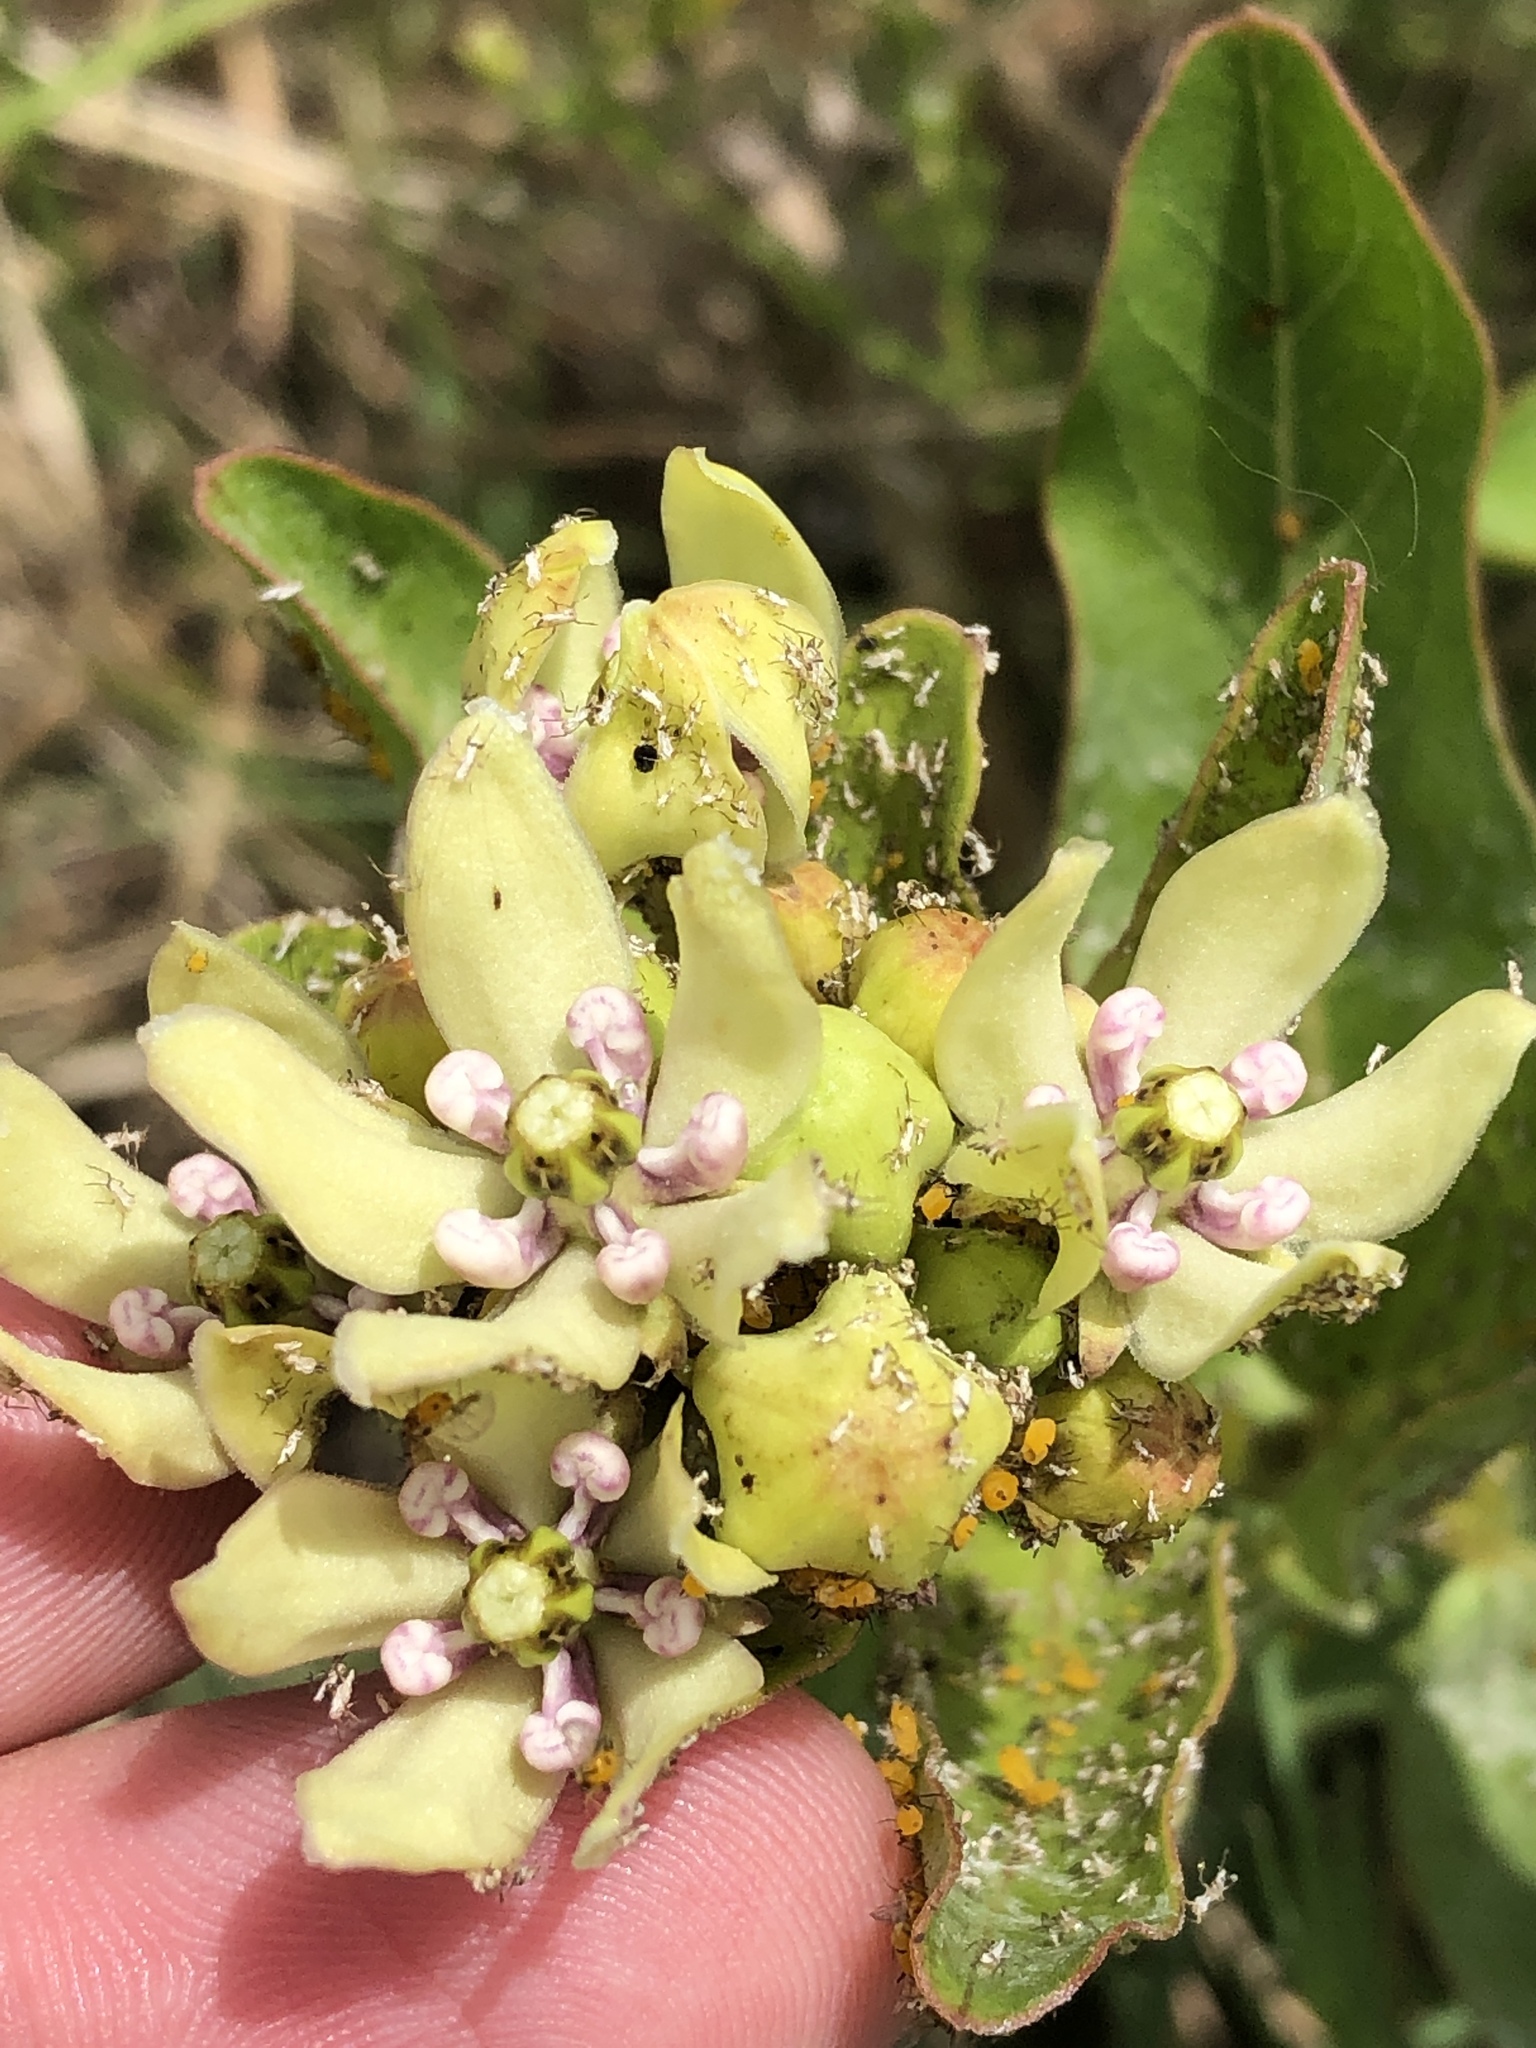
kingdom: Plantae
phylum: Tracheophyta
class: Magnoliopsida
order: Gentianales
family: Apocynaceae
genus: Asclepias
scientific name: Asclepias viridis
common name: Antelope-horns
